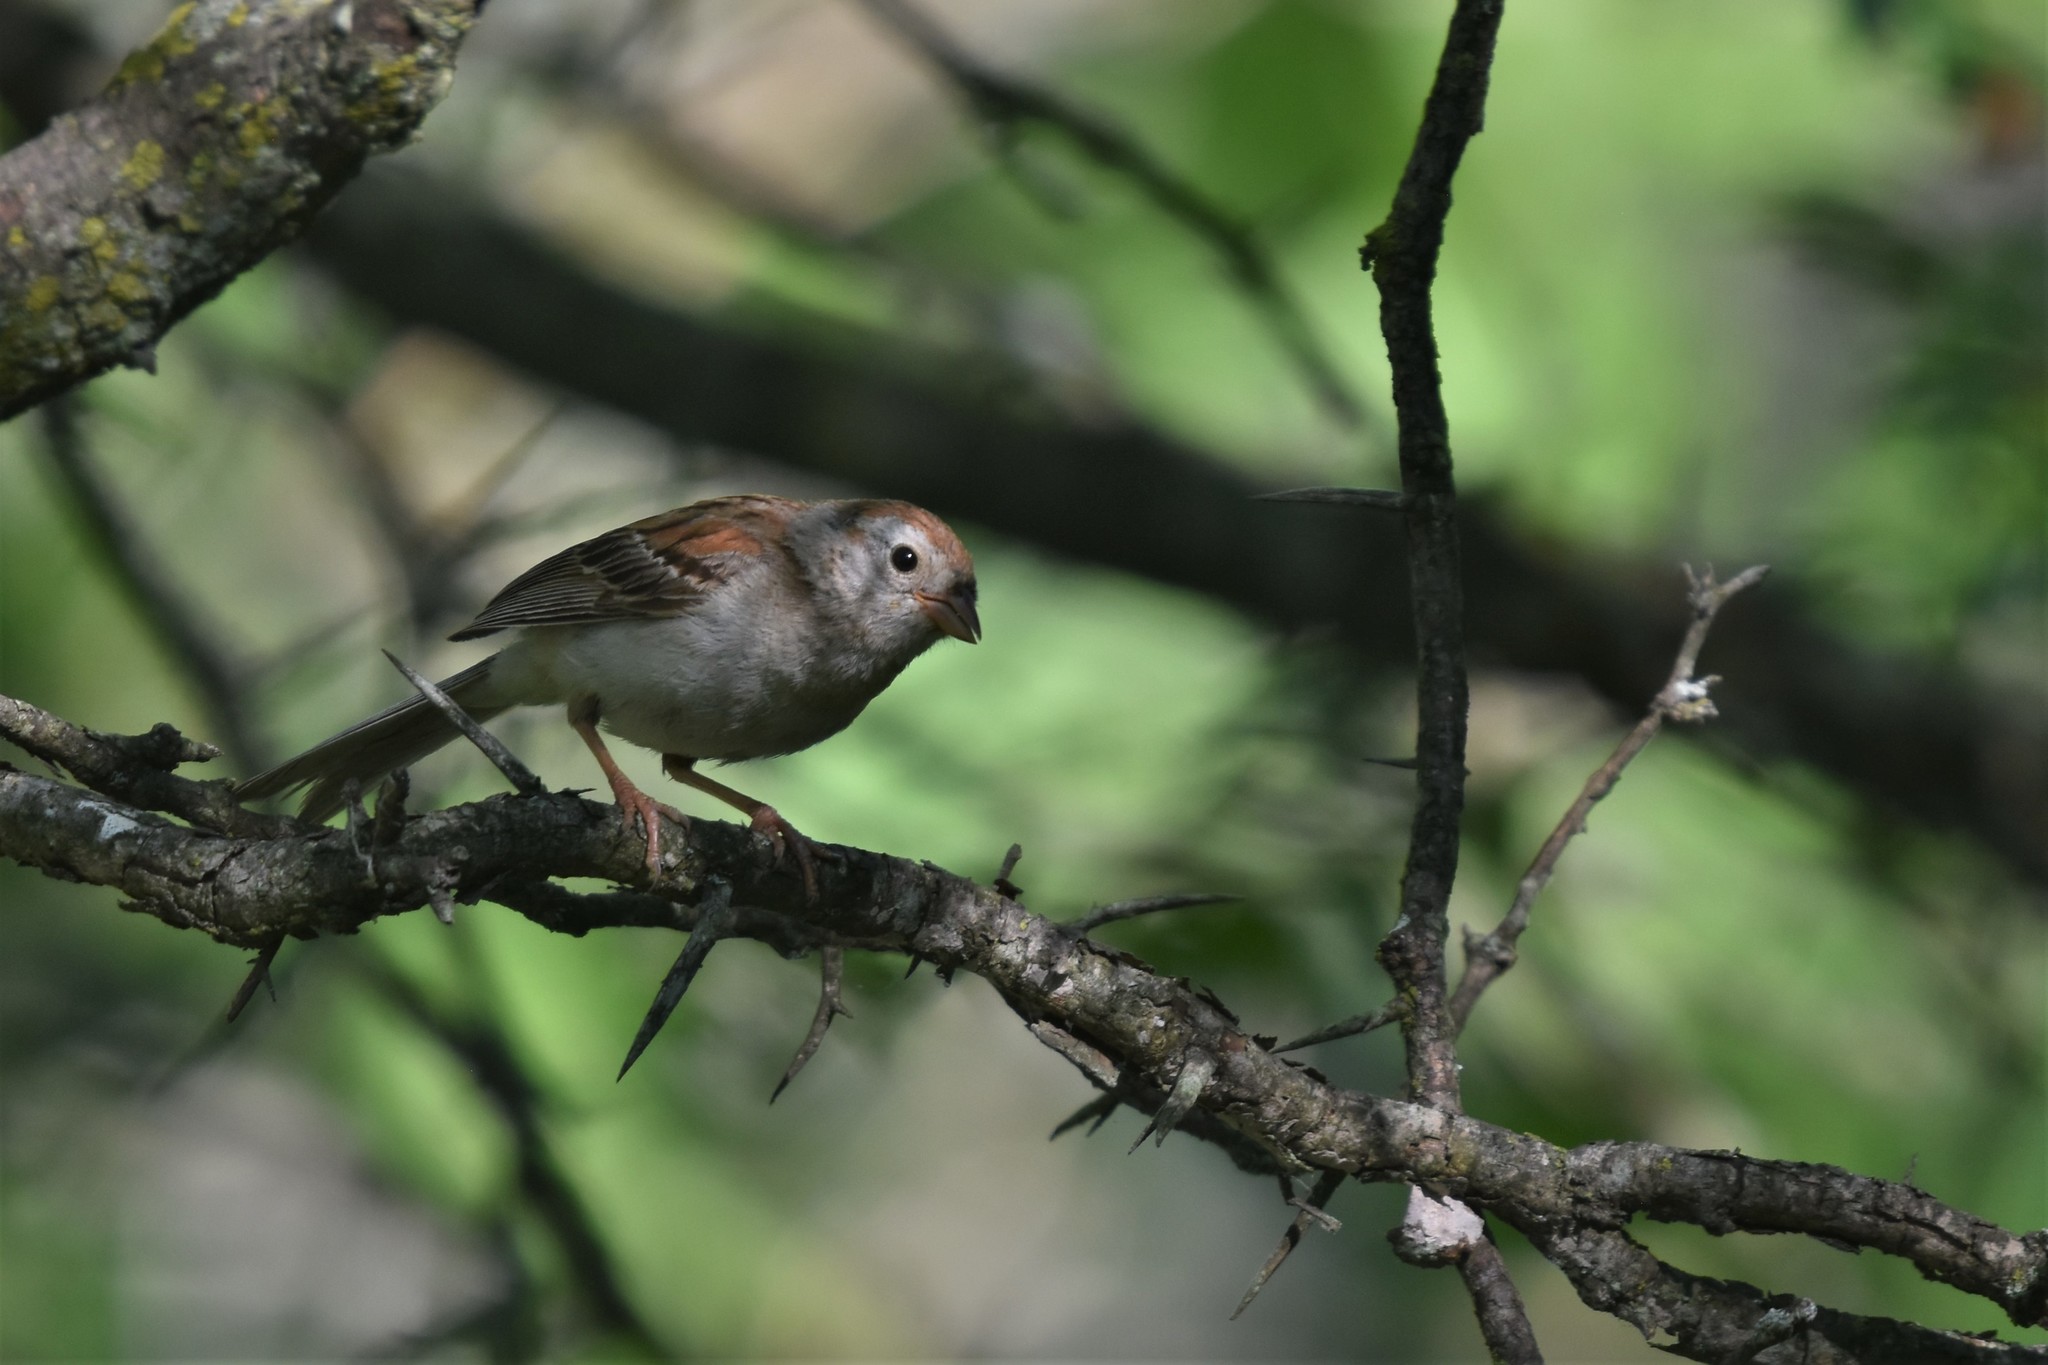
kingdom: Animalia
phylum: Chordata
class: Aves
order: Passeriformes
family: Passerellidae
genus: Spizella
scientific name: Spizella pusilla
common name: Field sparrow
